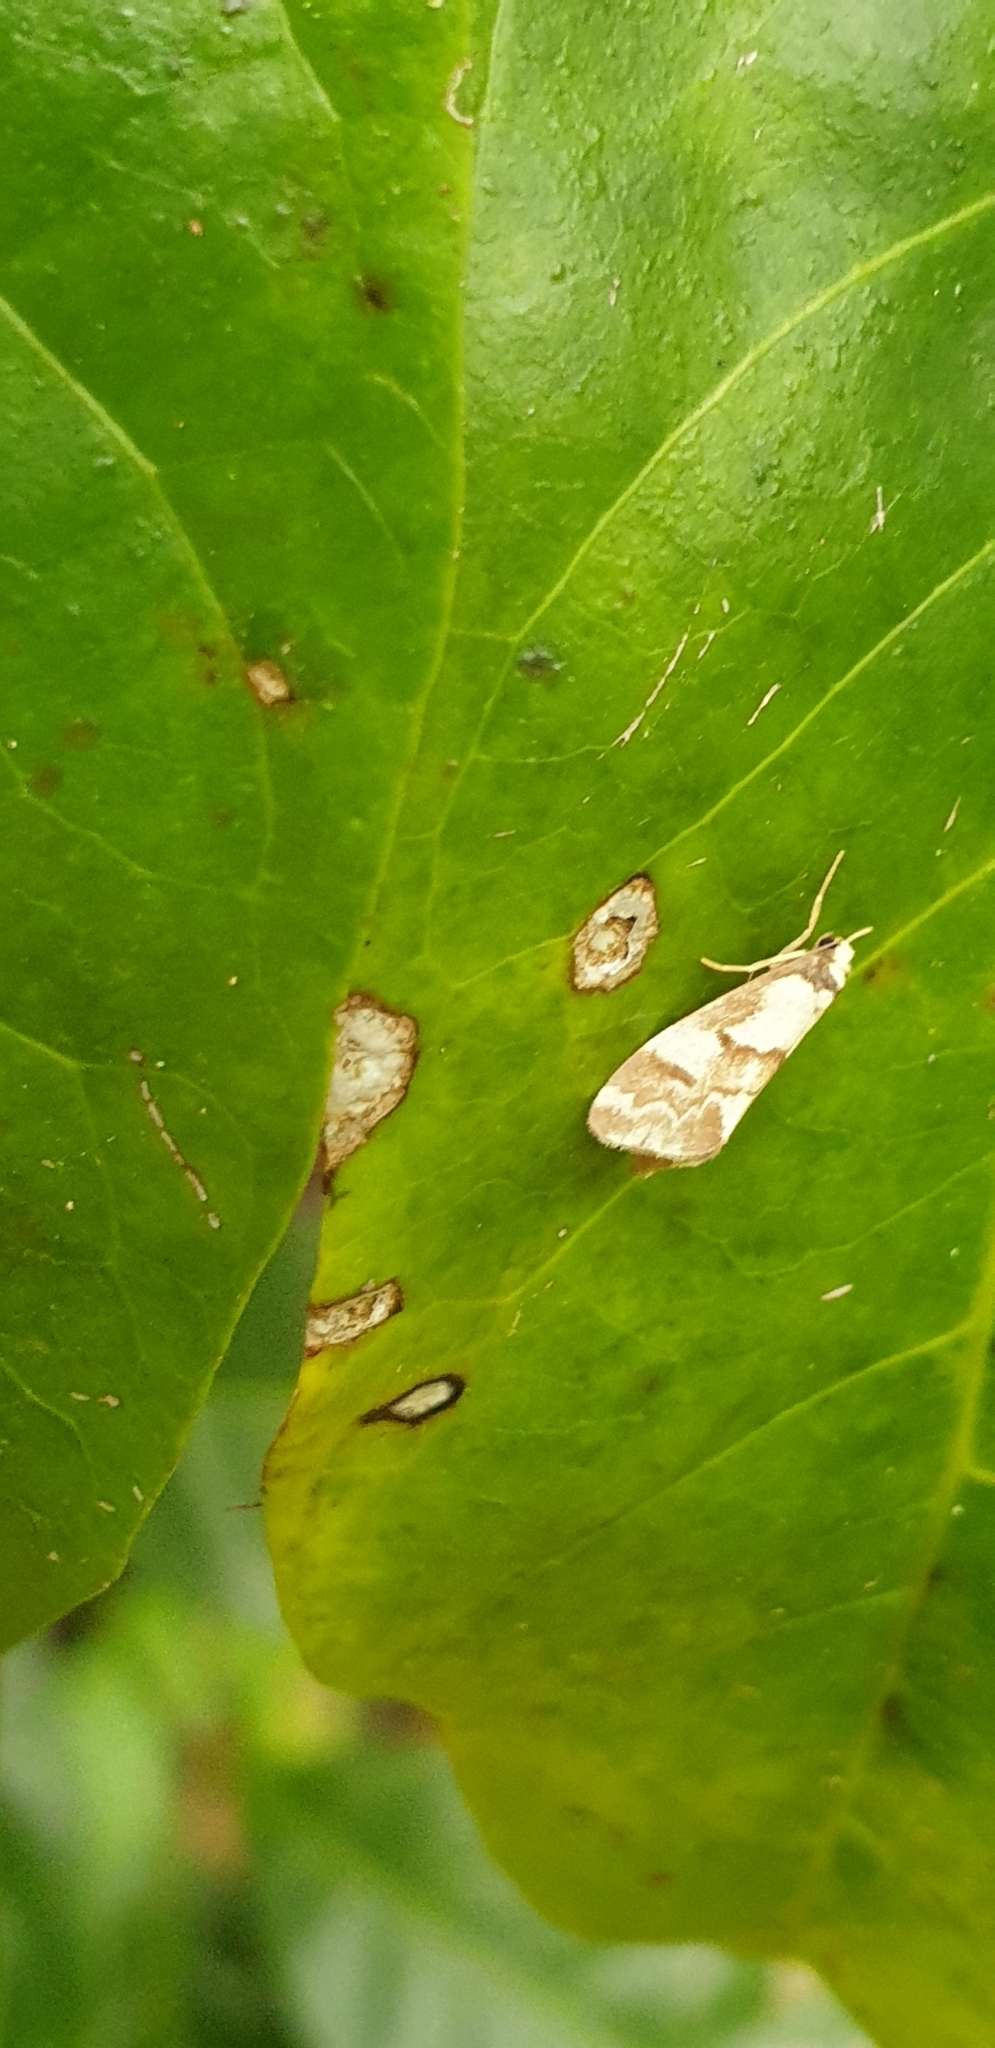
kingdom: Animalia
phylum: Arthropoda
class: Insecta
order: Lepidoptera
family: Erebidae
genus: Philenora
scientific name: Philenora chionastis
